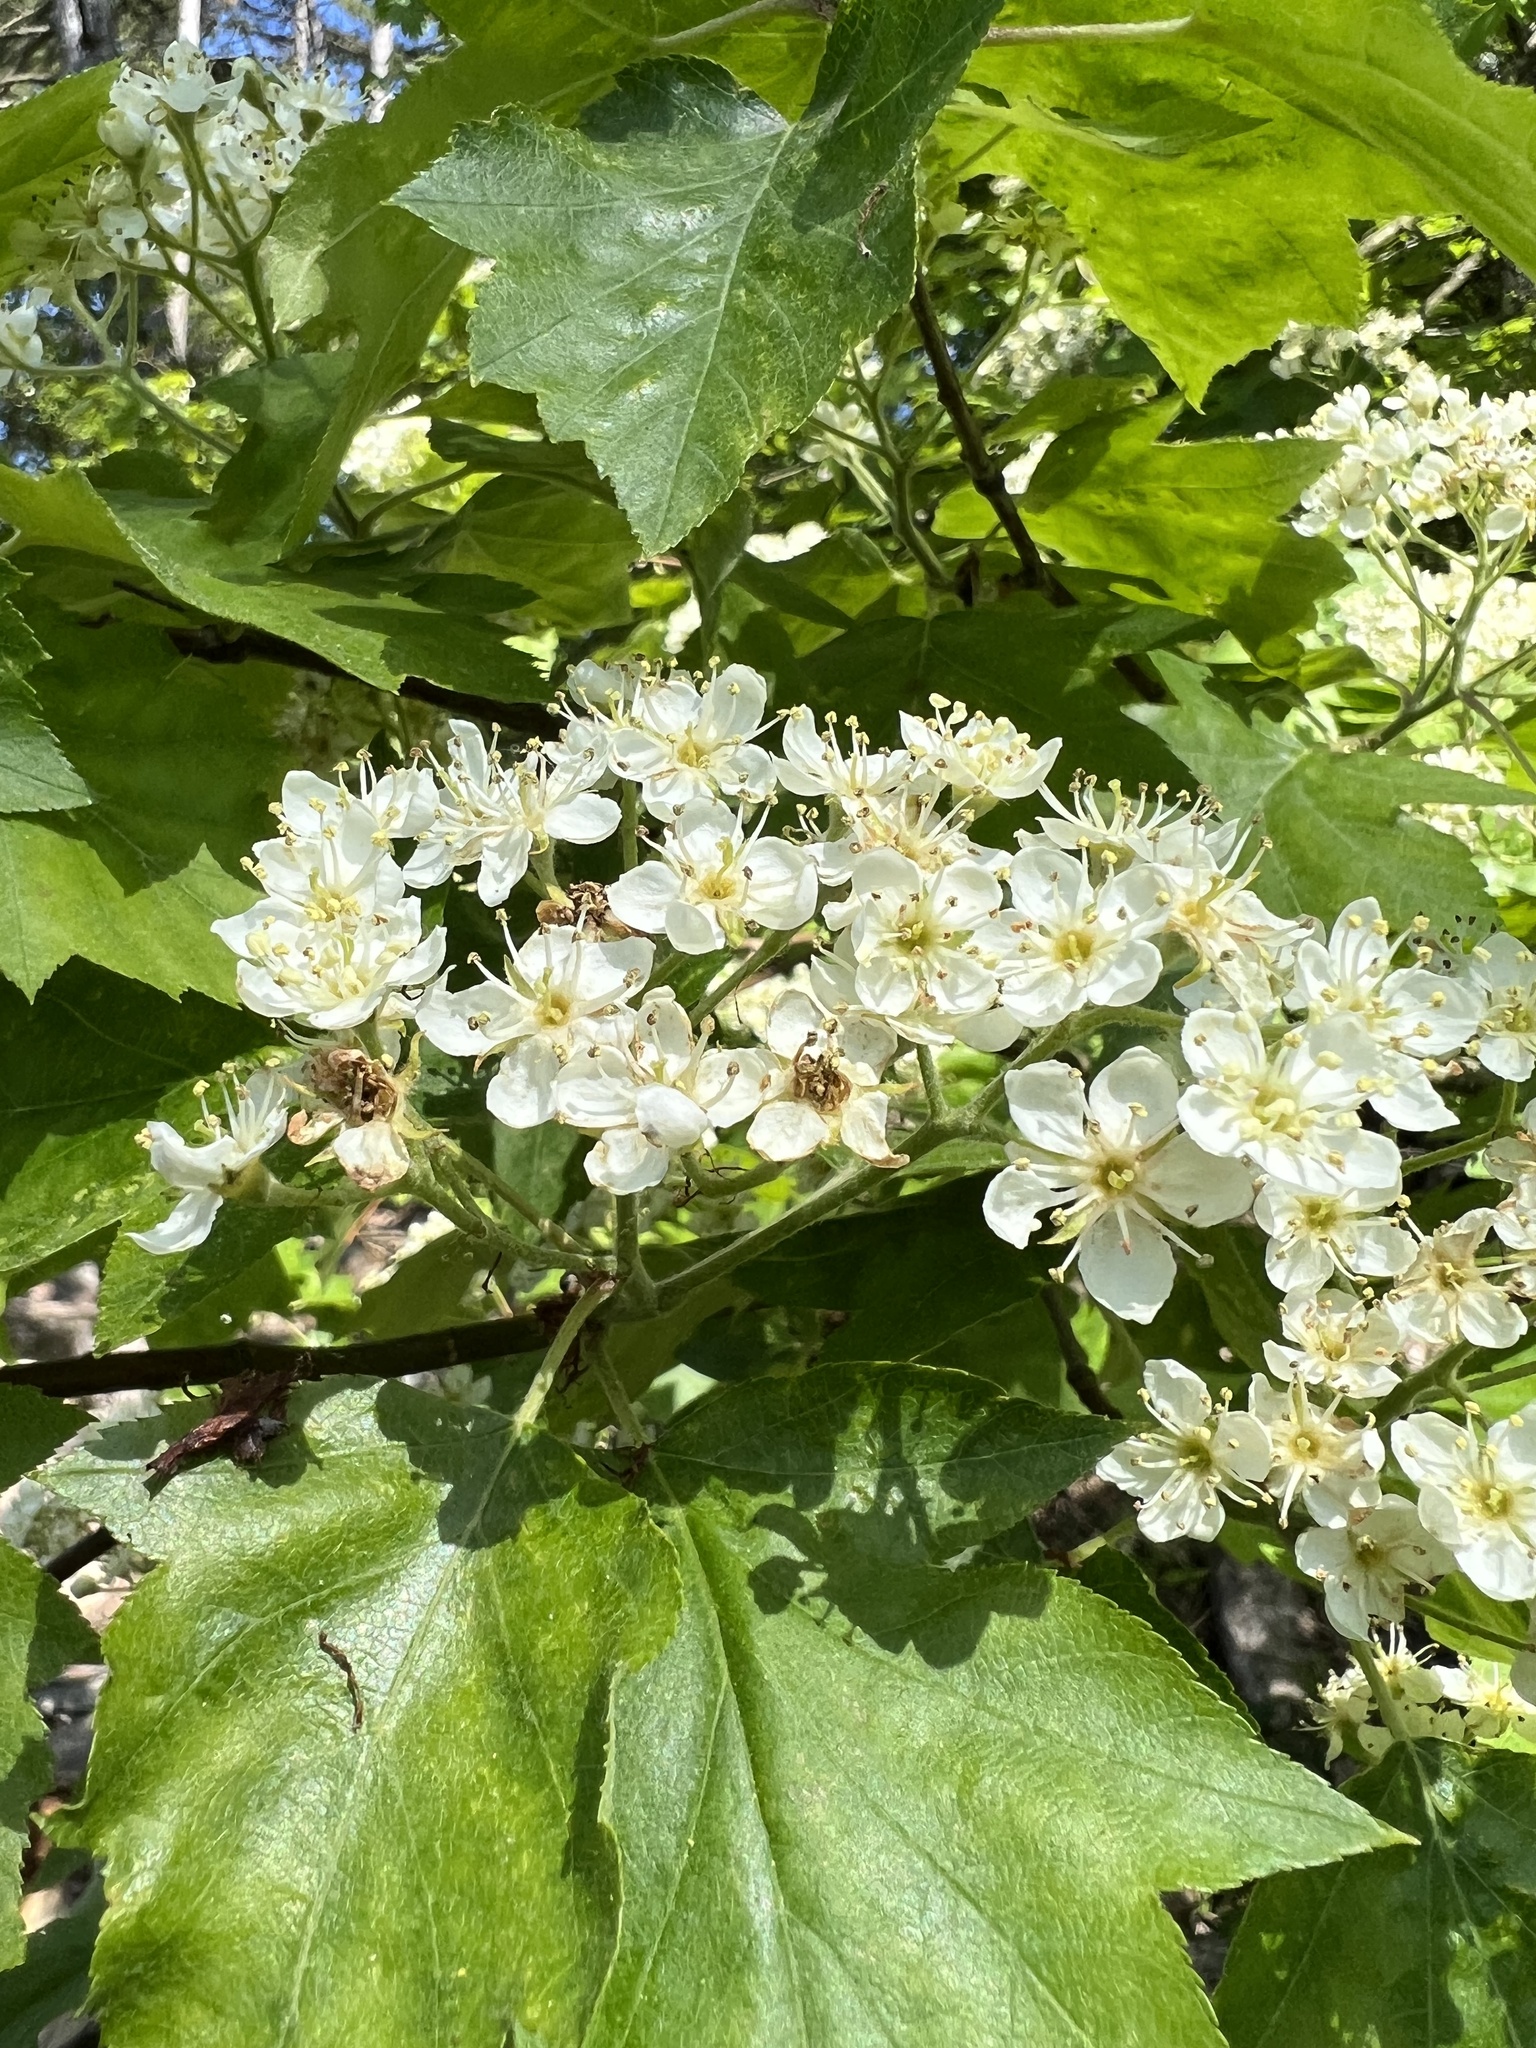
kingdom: Plantae
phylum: Tracheophyta
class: Magnoliopsida
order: Rosales
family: Rosaceae
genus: Torminalis
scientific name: Torminalis glaberrima
